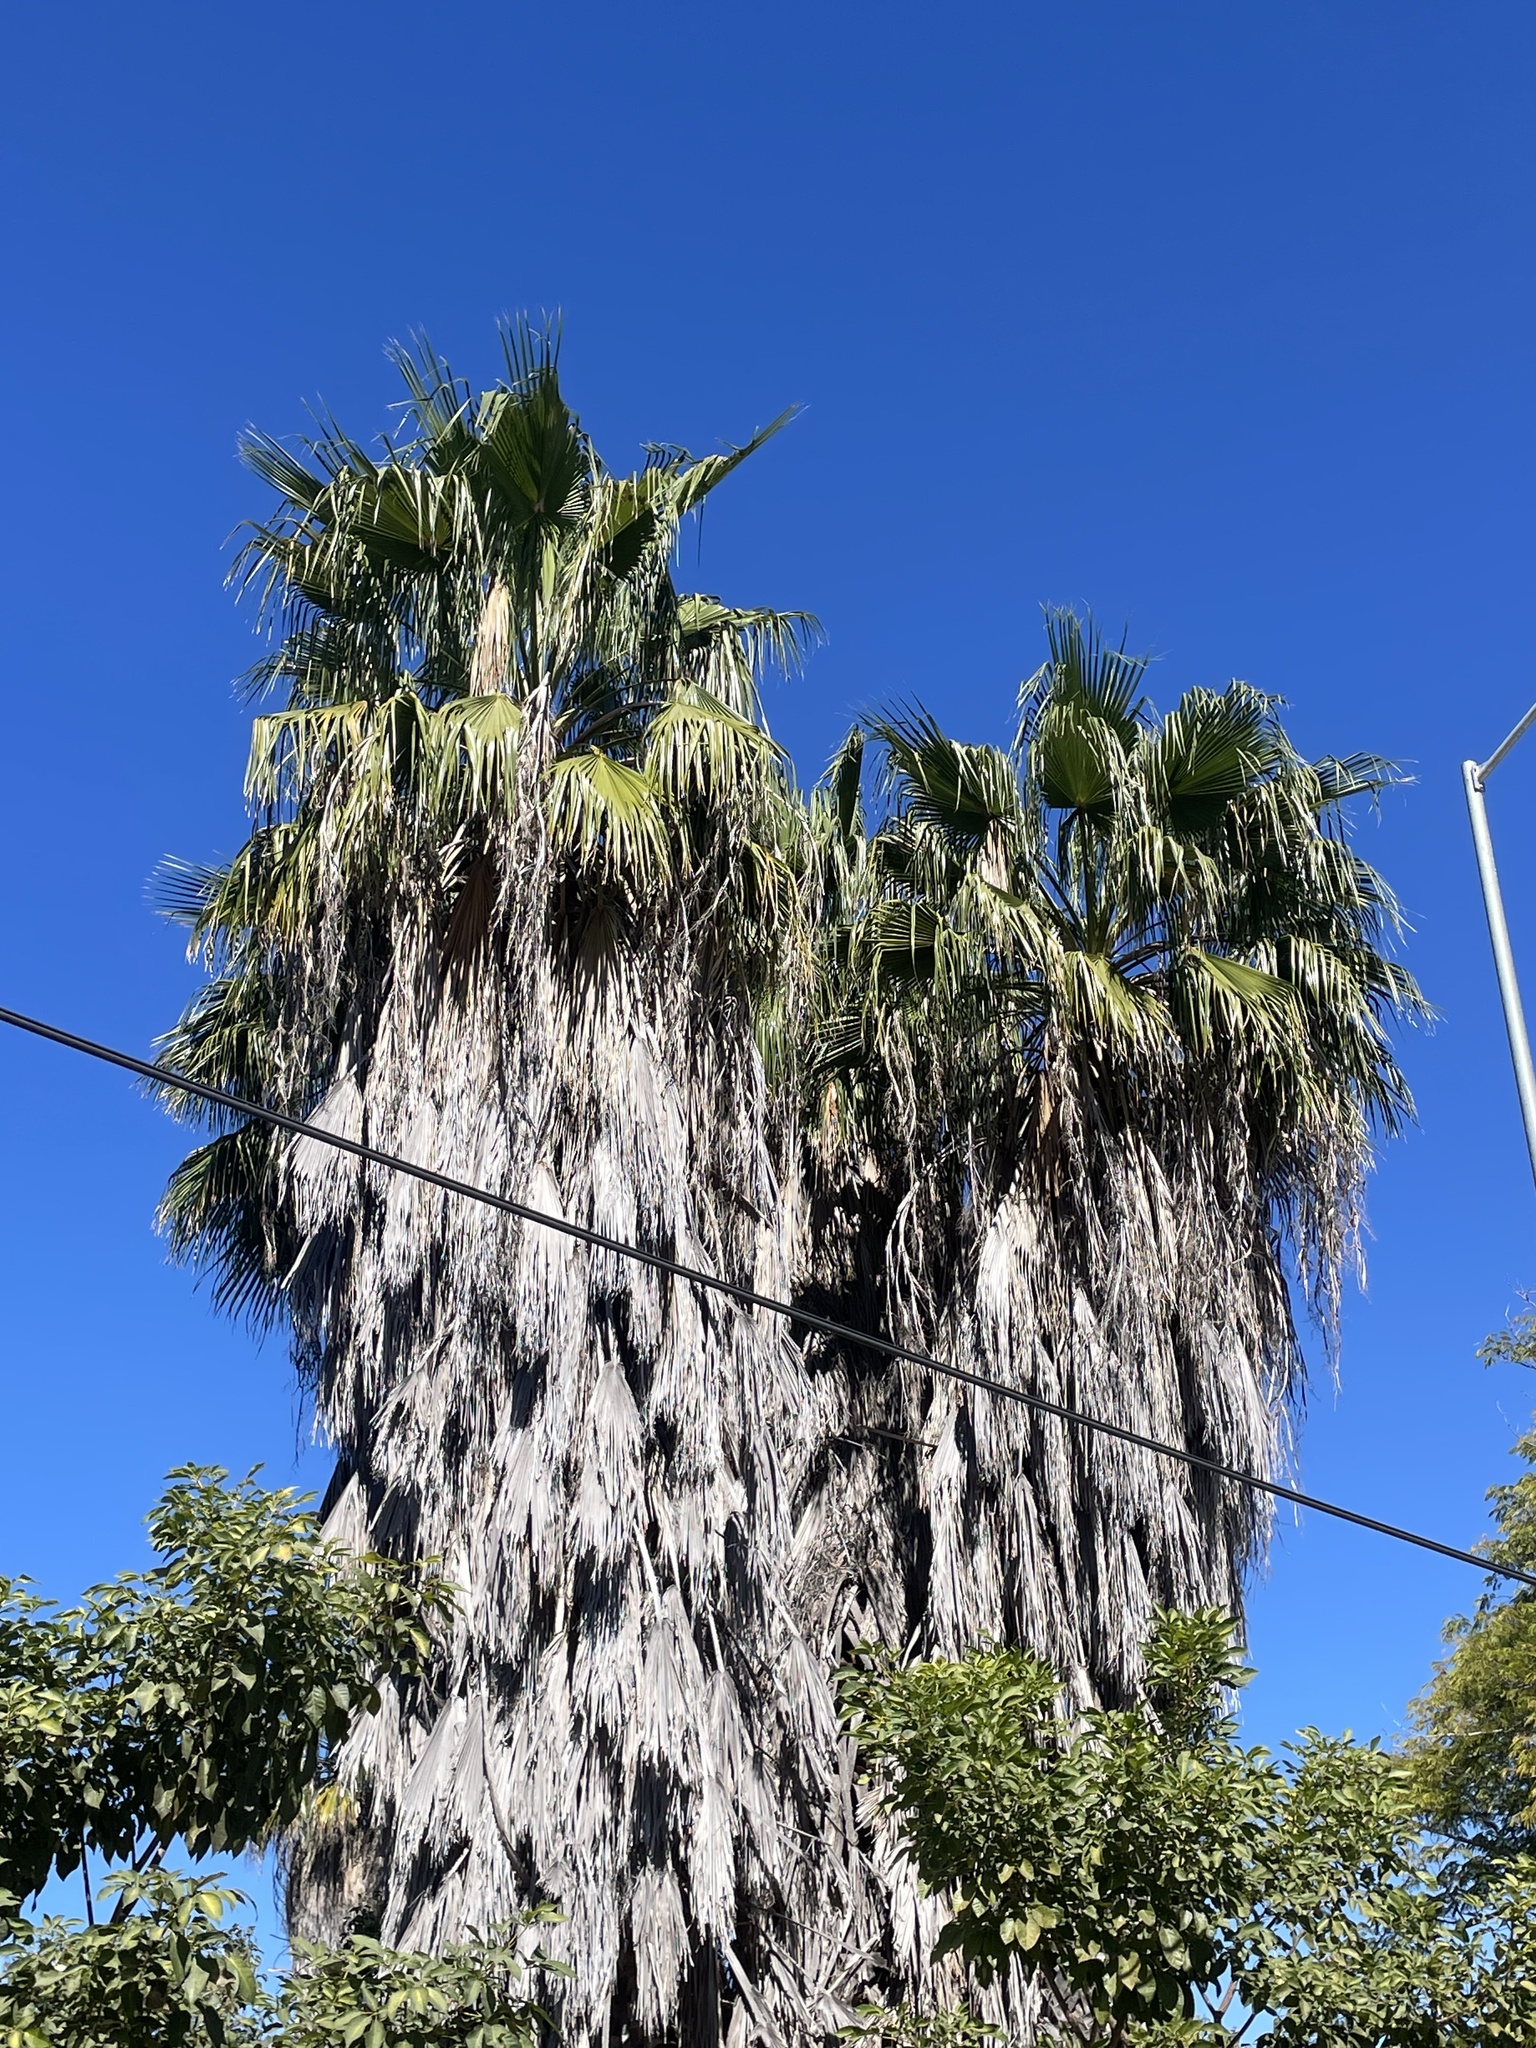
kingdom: Plantae
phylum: Tracheophyta
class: Liliopsida
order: Arecales
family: Arecaceae
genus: Washingtonia
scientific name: Washingtonia robusta
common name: Mexican fan palm
